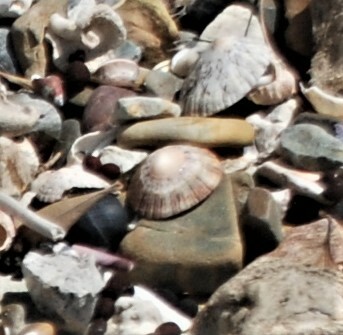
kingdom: Animalia
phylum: Mollusca
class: Gastropoda
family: Nacellidae
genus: Cellana
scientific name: Cellana tramoserica
